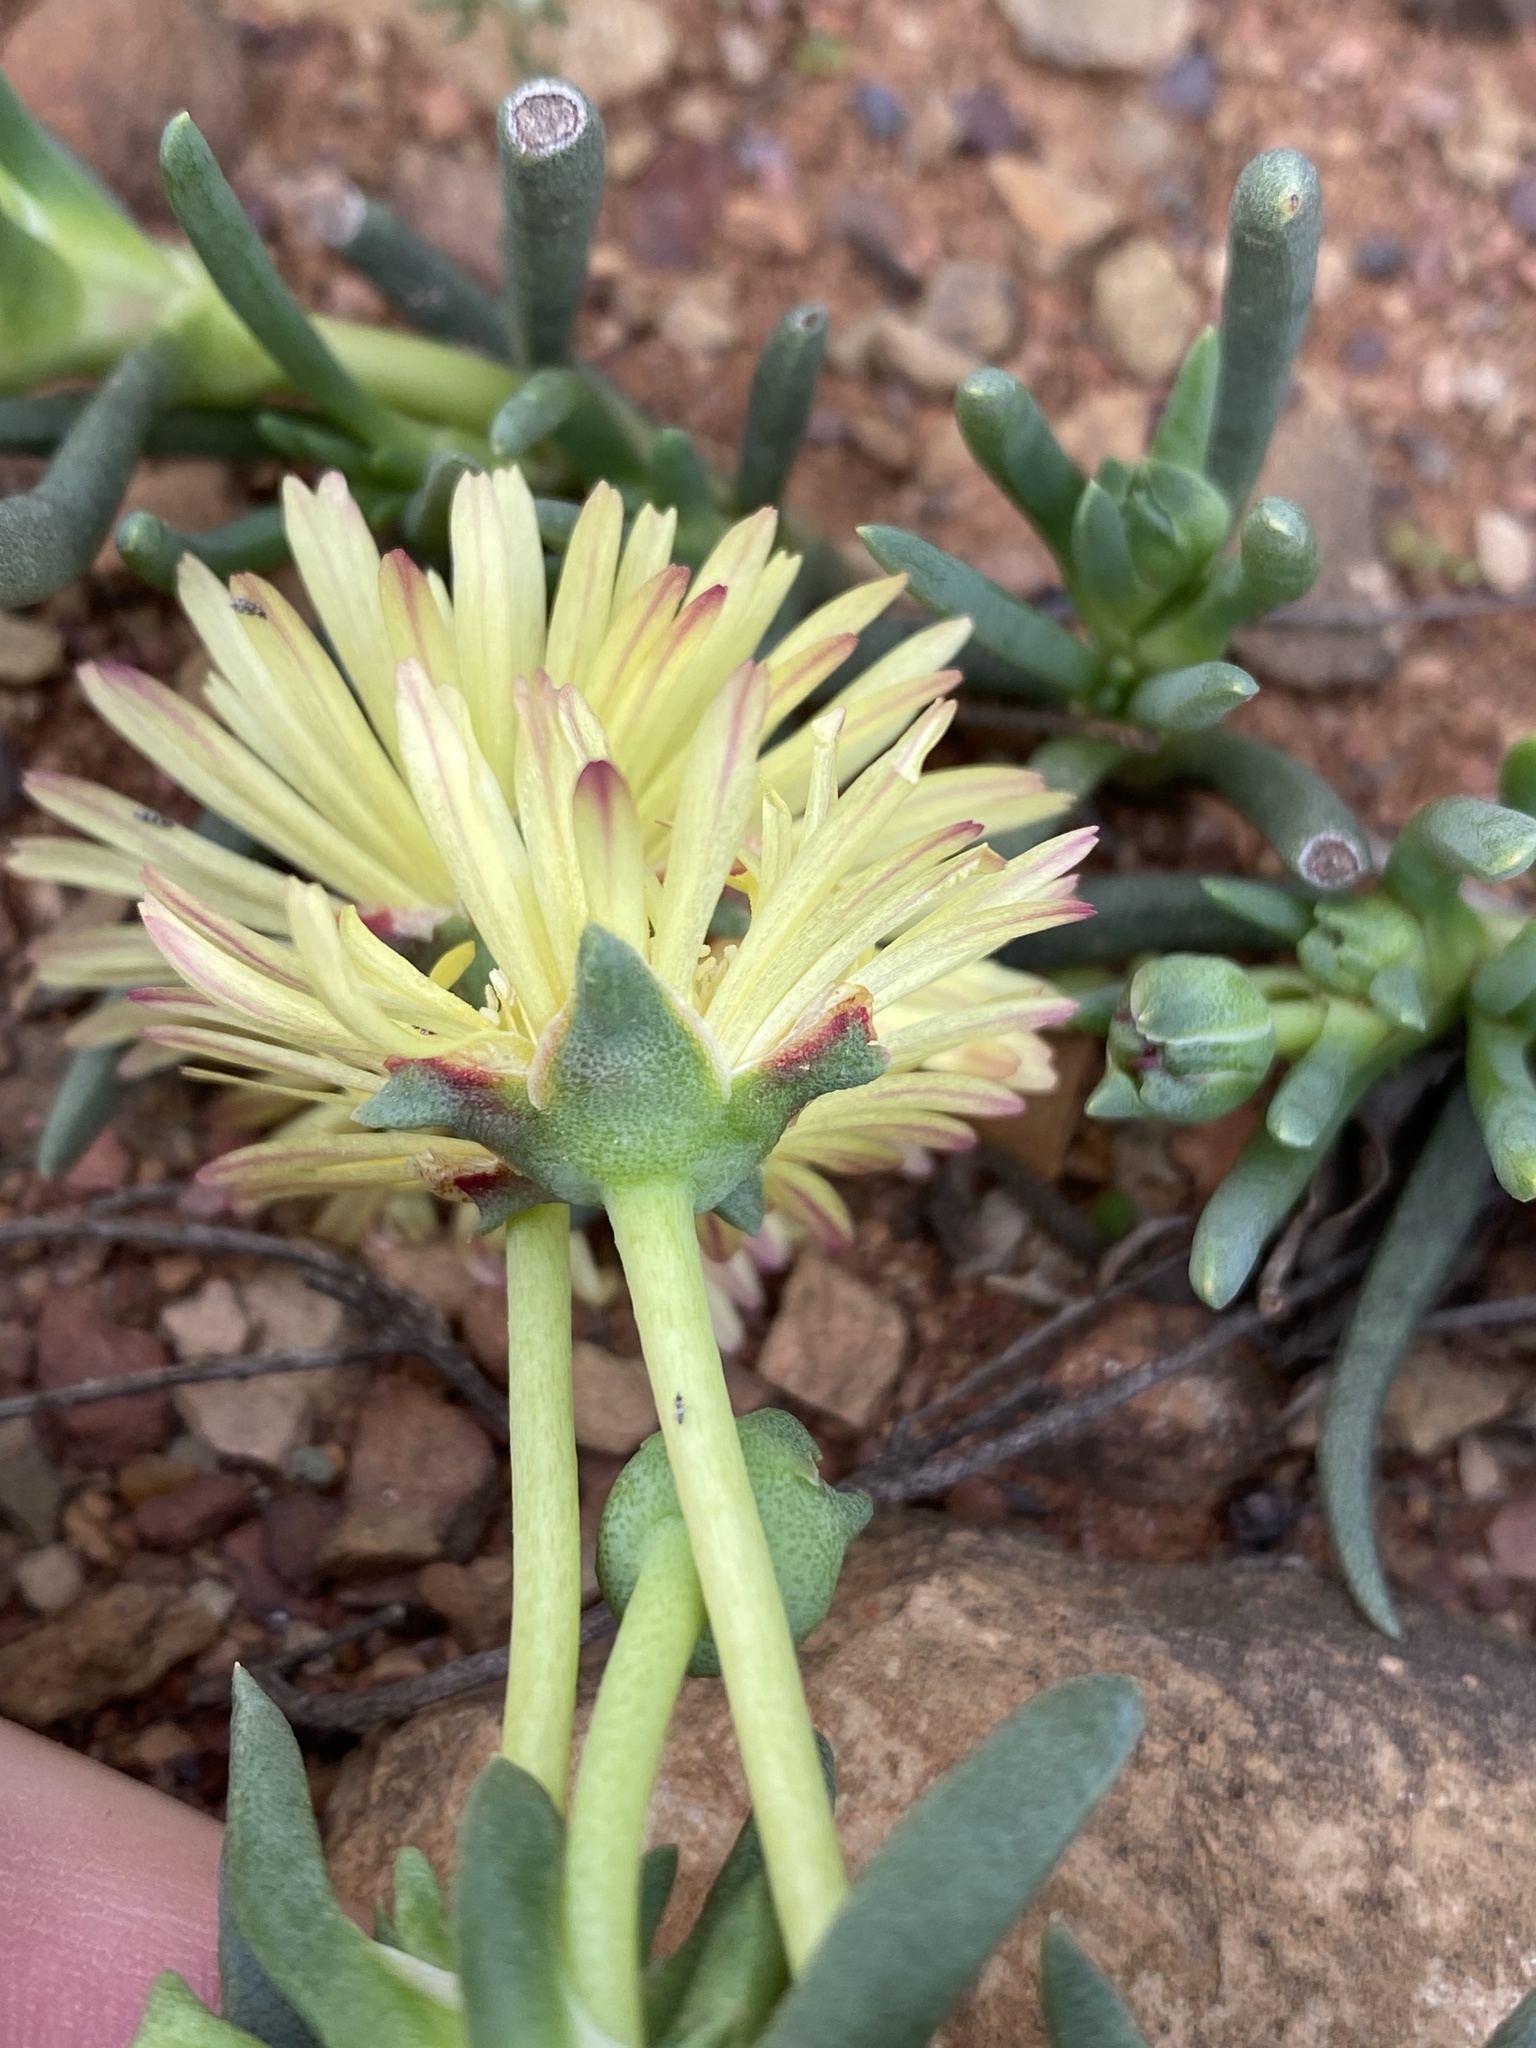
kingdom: Plantae
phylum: Tracheophyta
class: Magnoliopsida
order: Caryophyllales
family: Aizoaceae
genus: Cephalophyllum
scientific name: Cephalophyllum purpureoalbum
